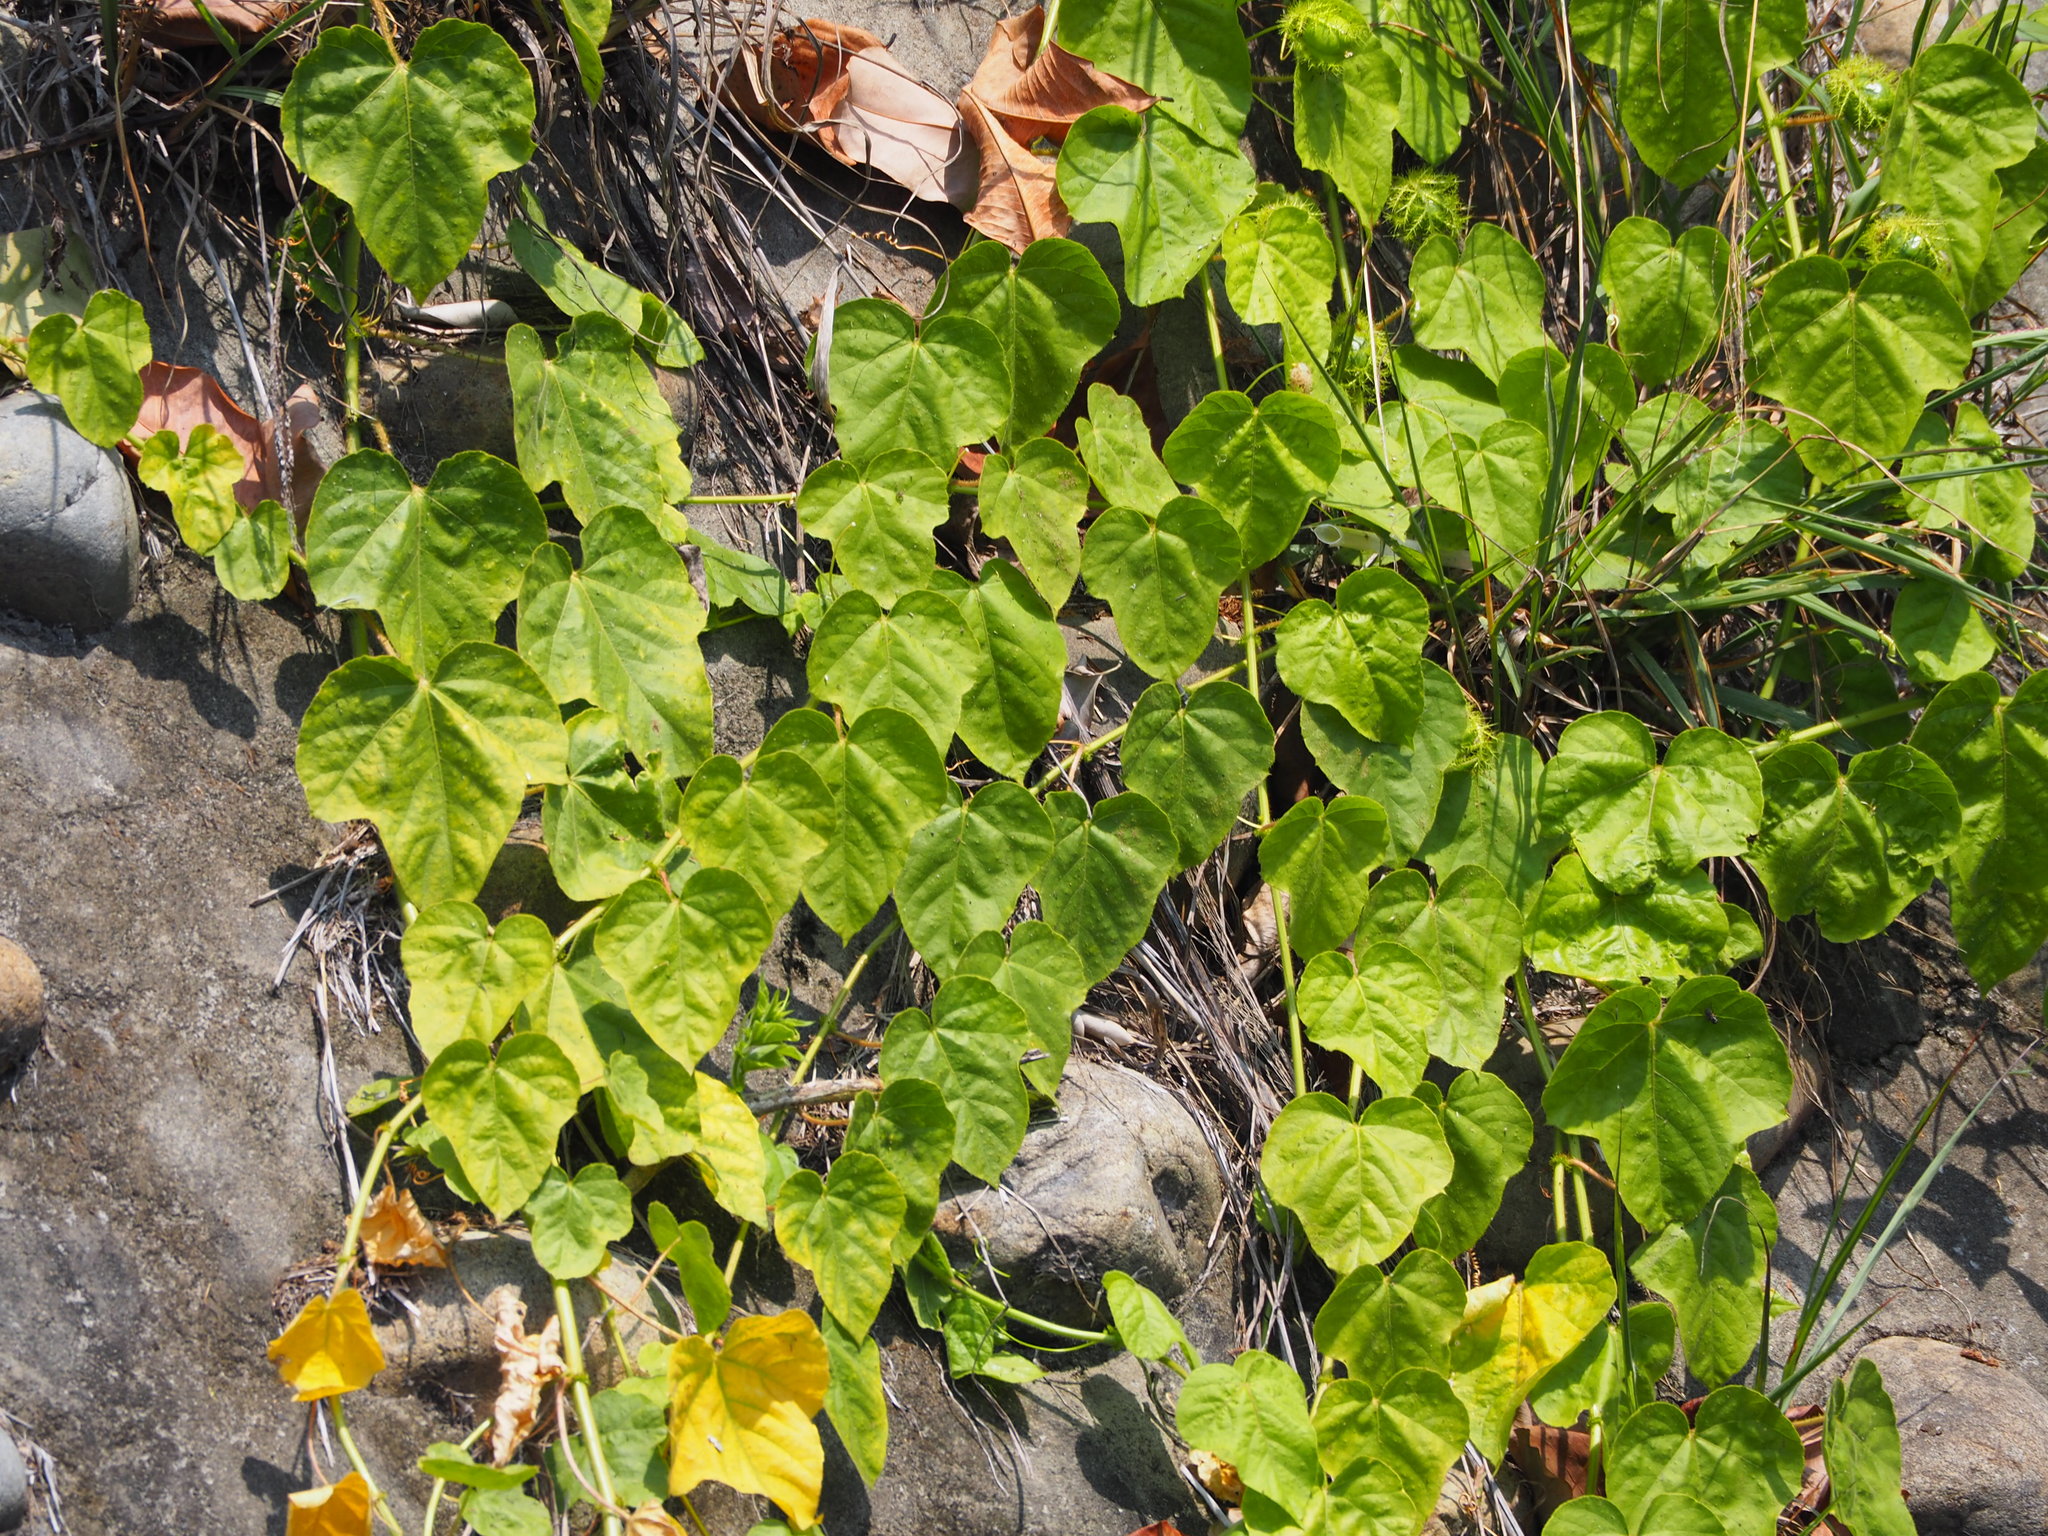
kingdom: Plantae
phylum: Tracheophyta
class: Magnoliopsida
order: Malpighiales
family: Passifloraceae
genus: Passiflora
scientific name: Passiflora vesicaria
